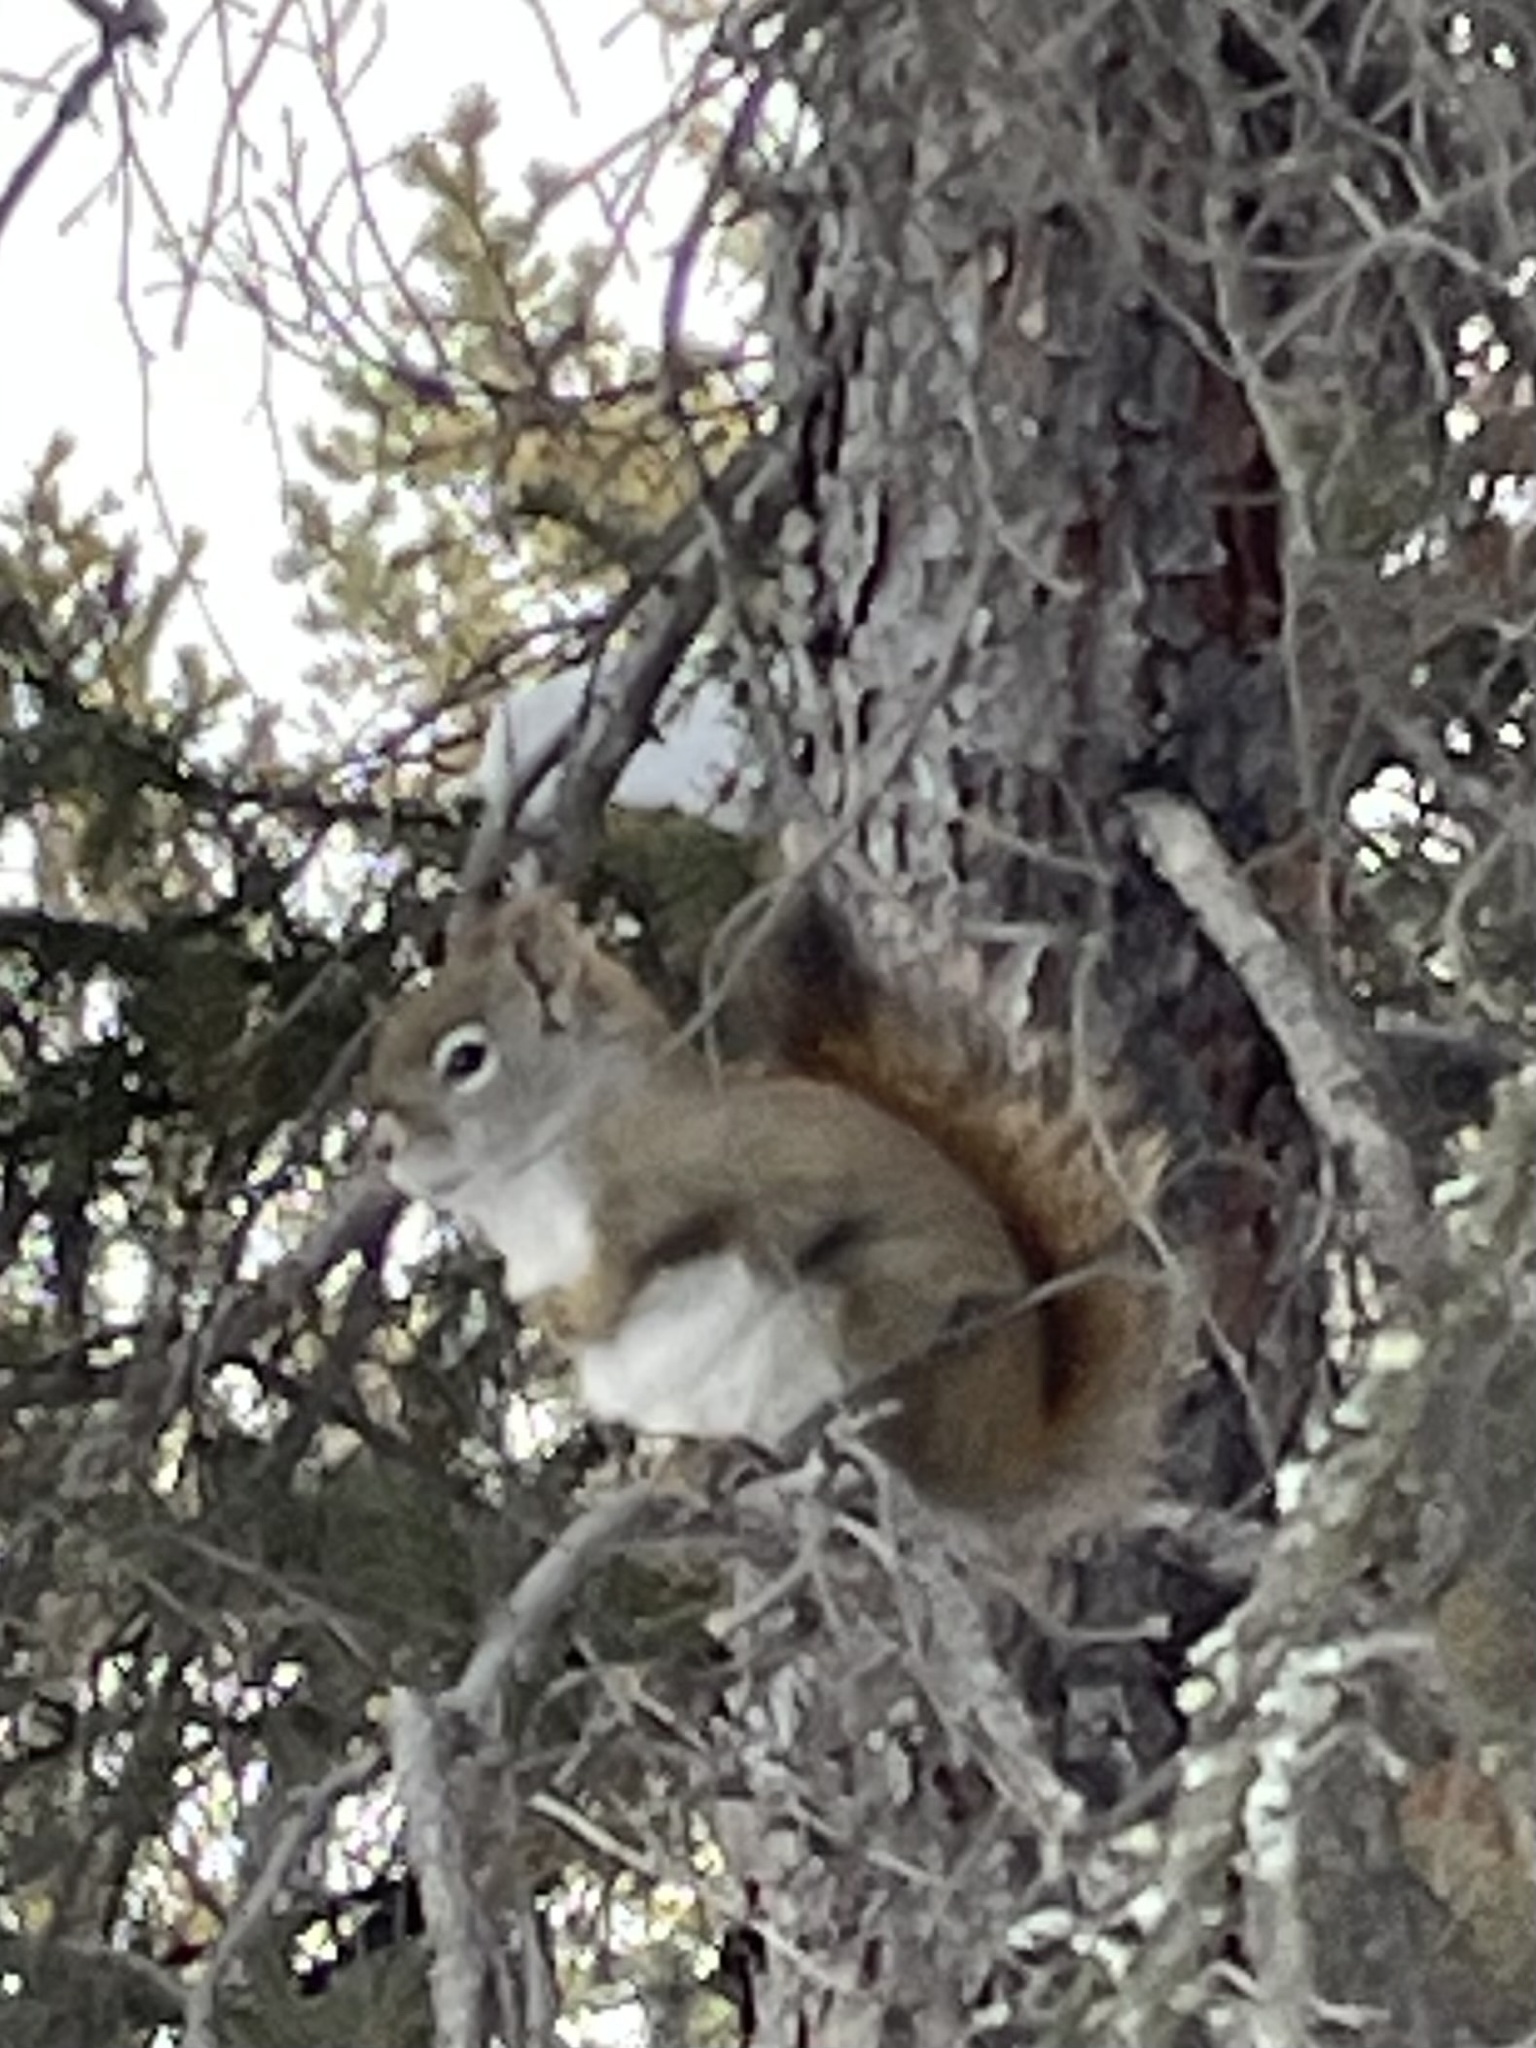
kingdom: Animalia
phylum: Chordata
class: Mammalia
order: Rodentia
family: Sciuridae
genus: Tamiasciurus
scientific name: Tamiasciurus hudsonicus
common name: Red squirrel
